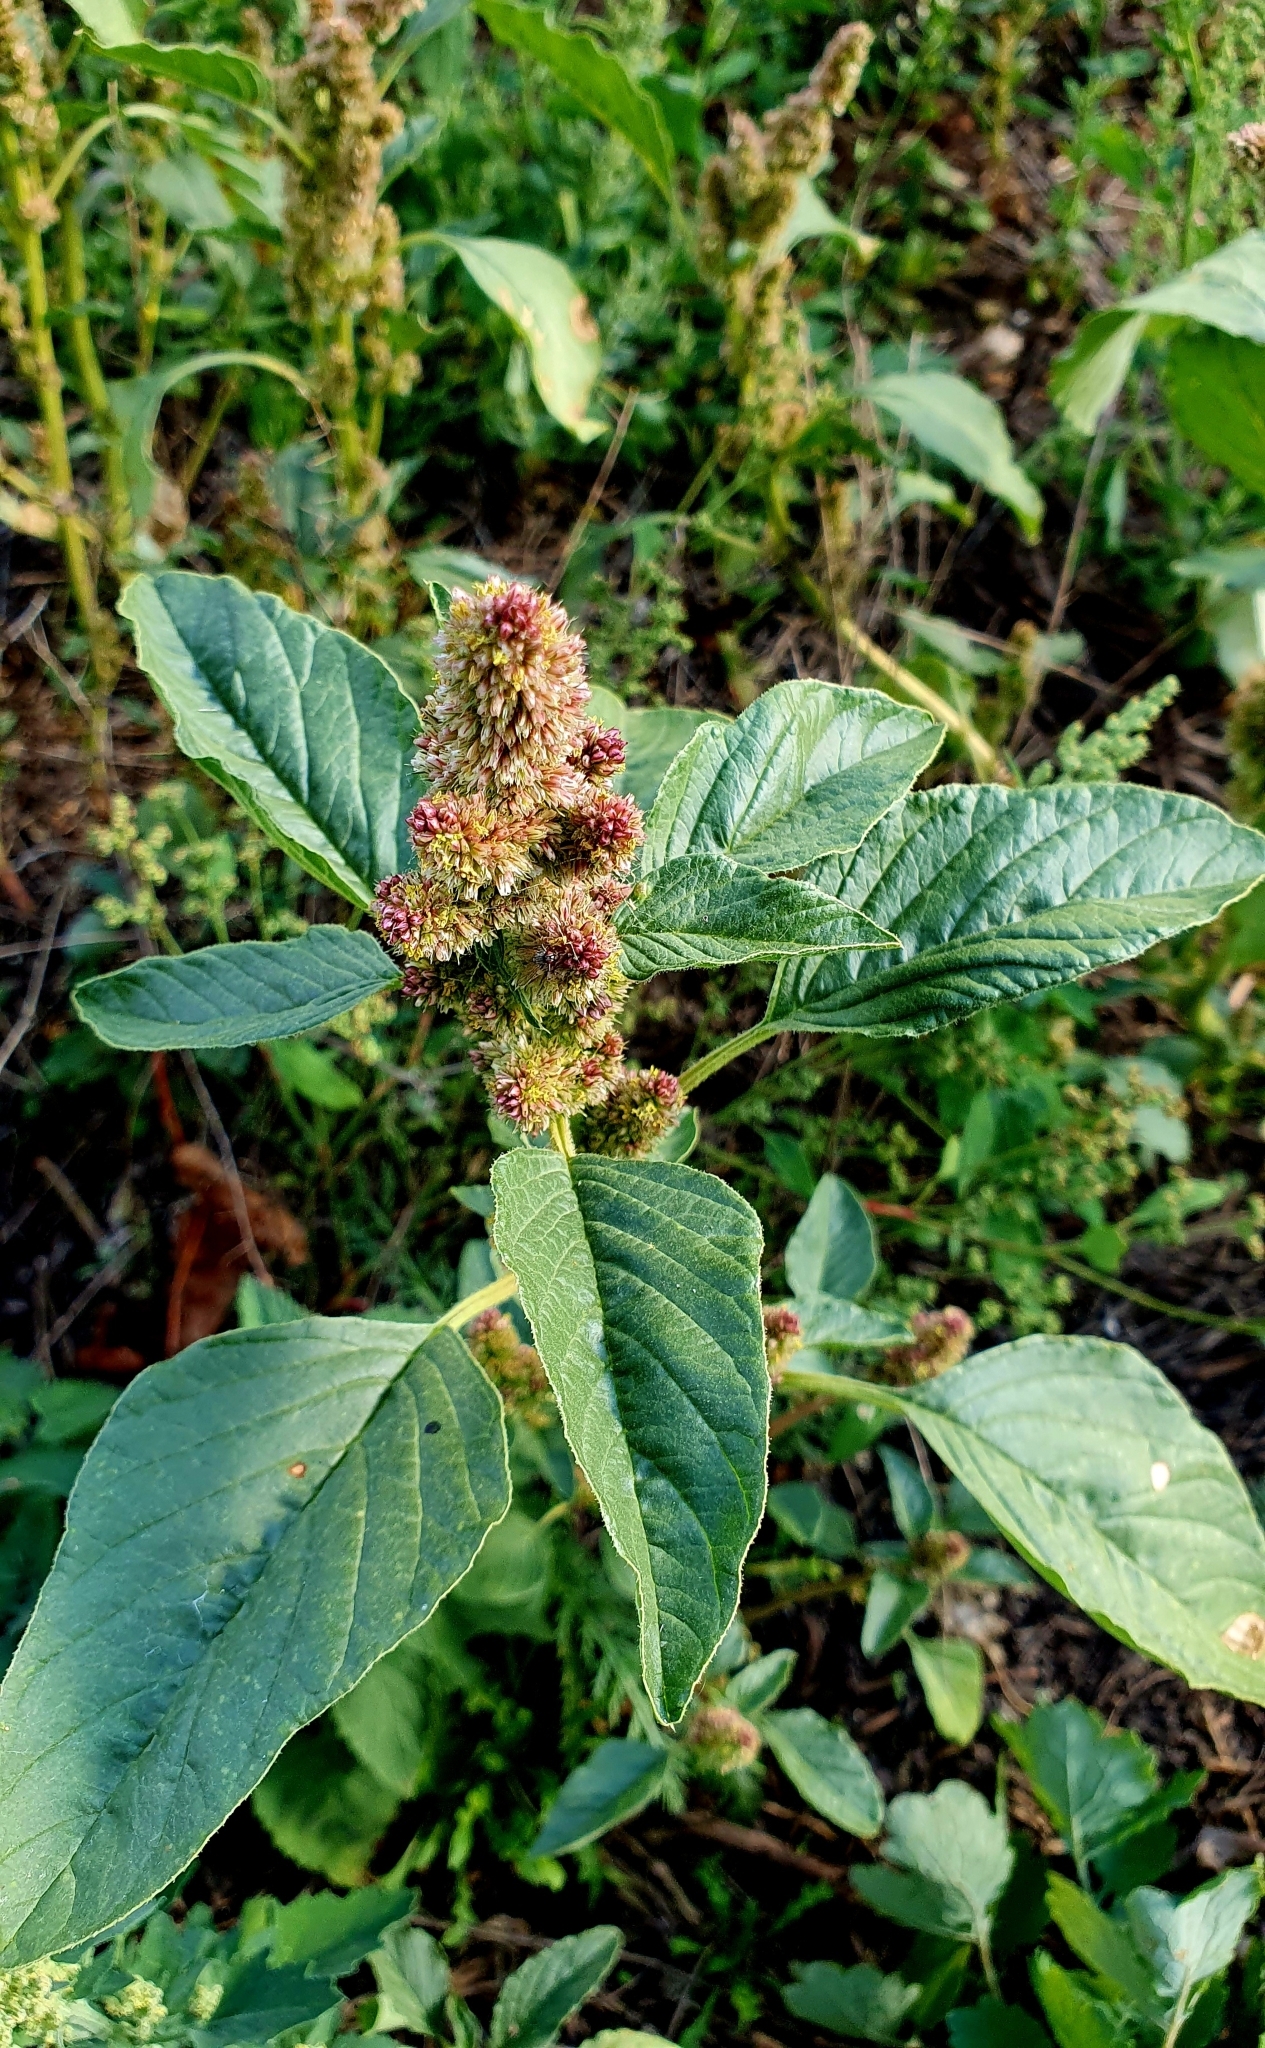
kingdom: Plantae
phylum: Tracheophyta
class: Magnoliopsida
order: Caryophyllales
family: Amaranthaceae
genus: Amaranthus
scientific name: Amaranthus retroflexus
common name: Redroot amaranth
